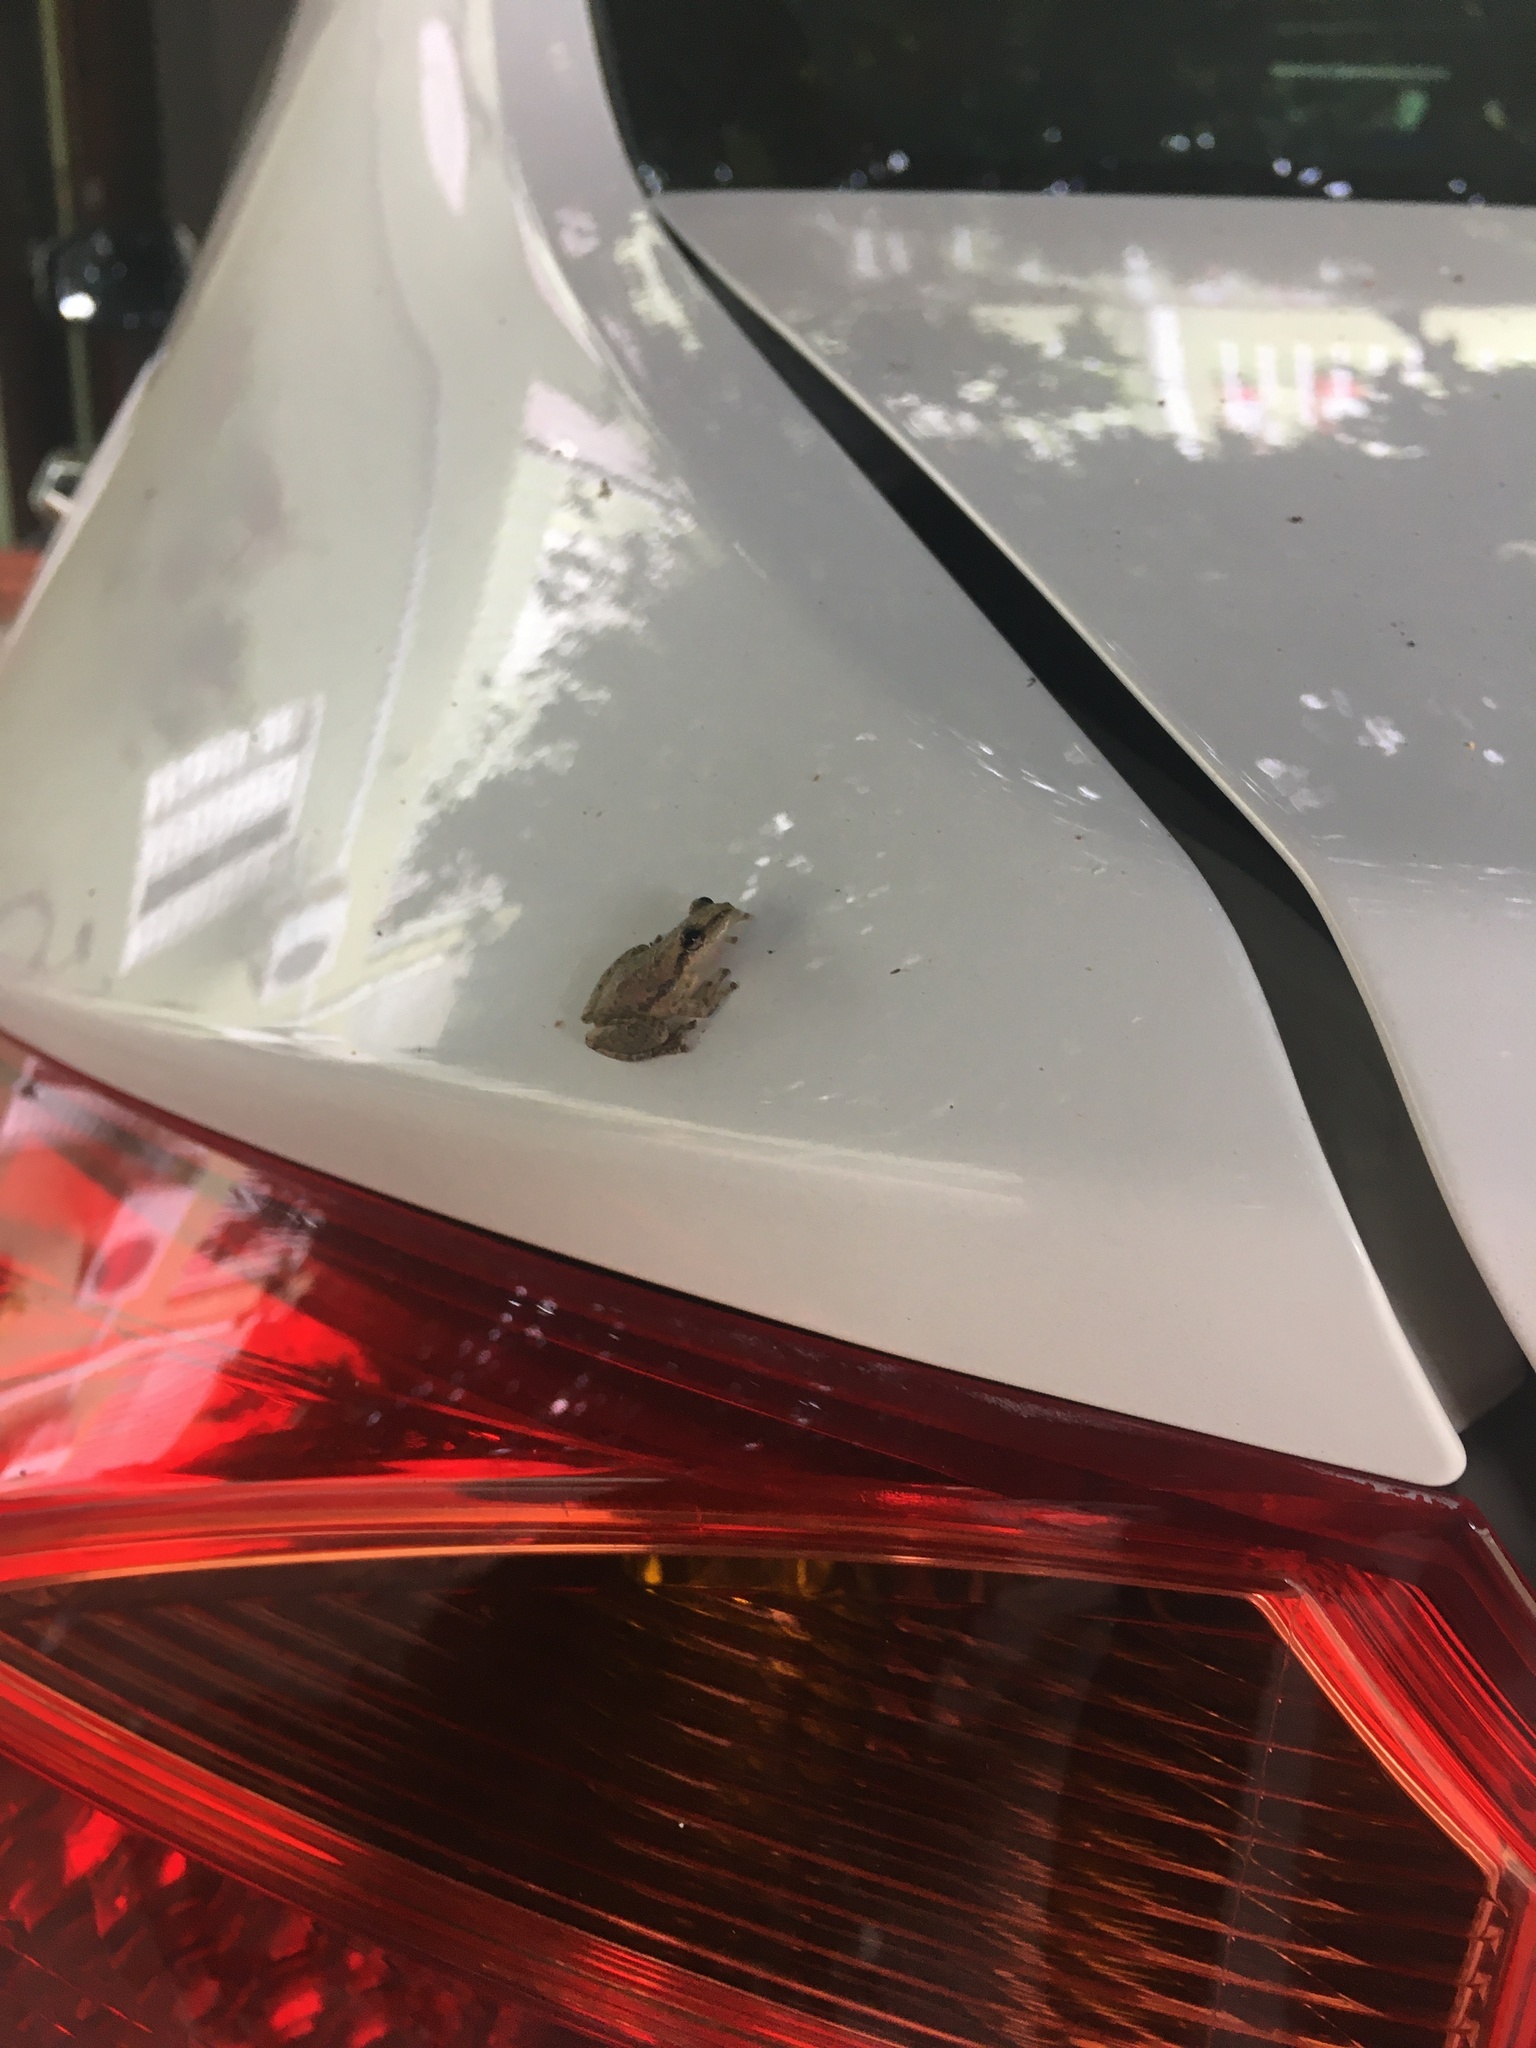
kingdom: Animalia
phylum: Chordata
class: Amphibia
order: Anura
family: Hylidae
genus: Scinax
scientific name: Scinax nasicus
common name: Lesser snouted treefrog
